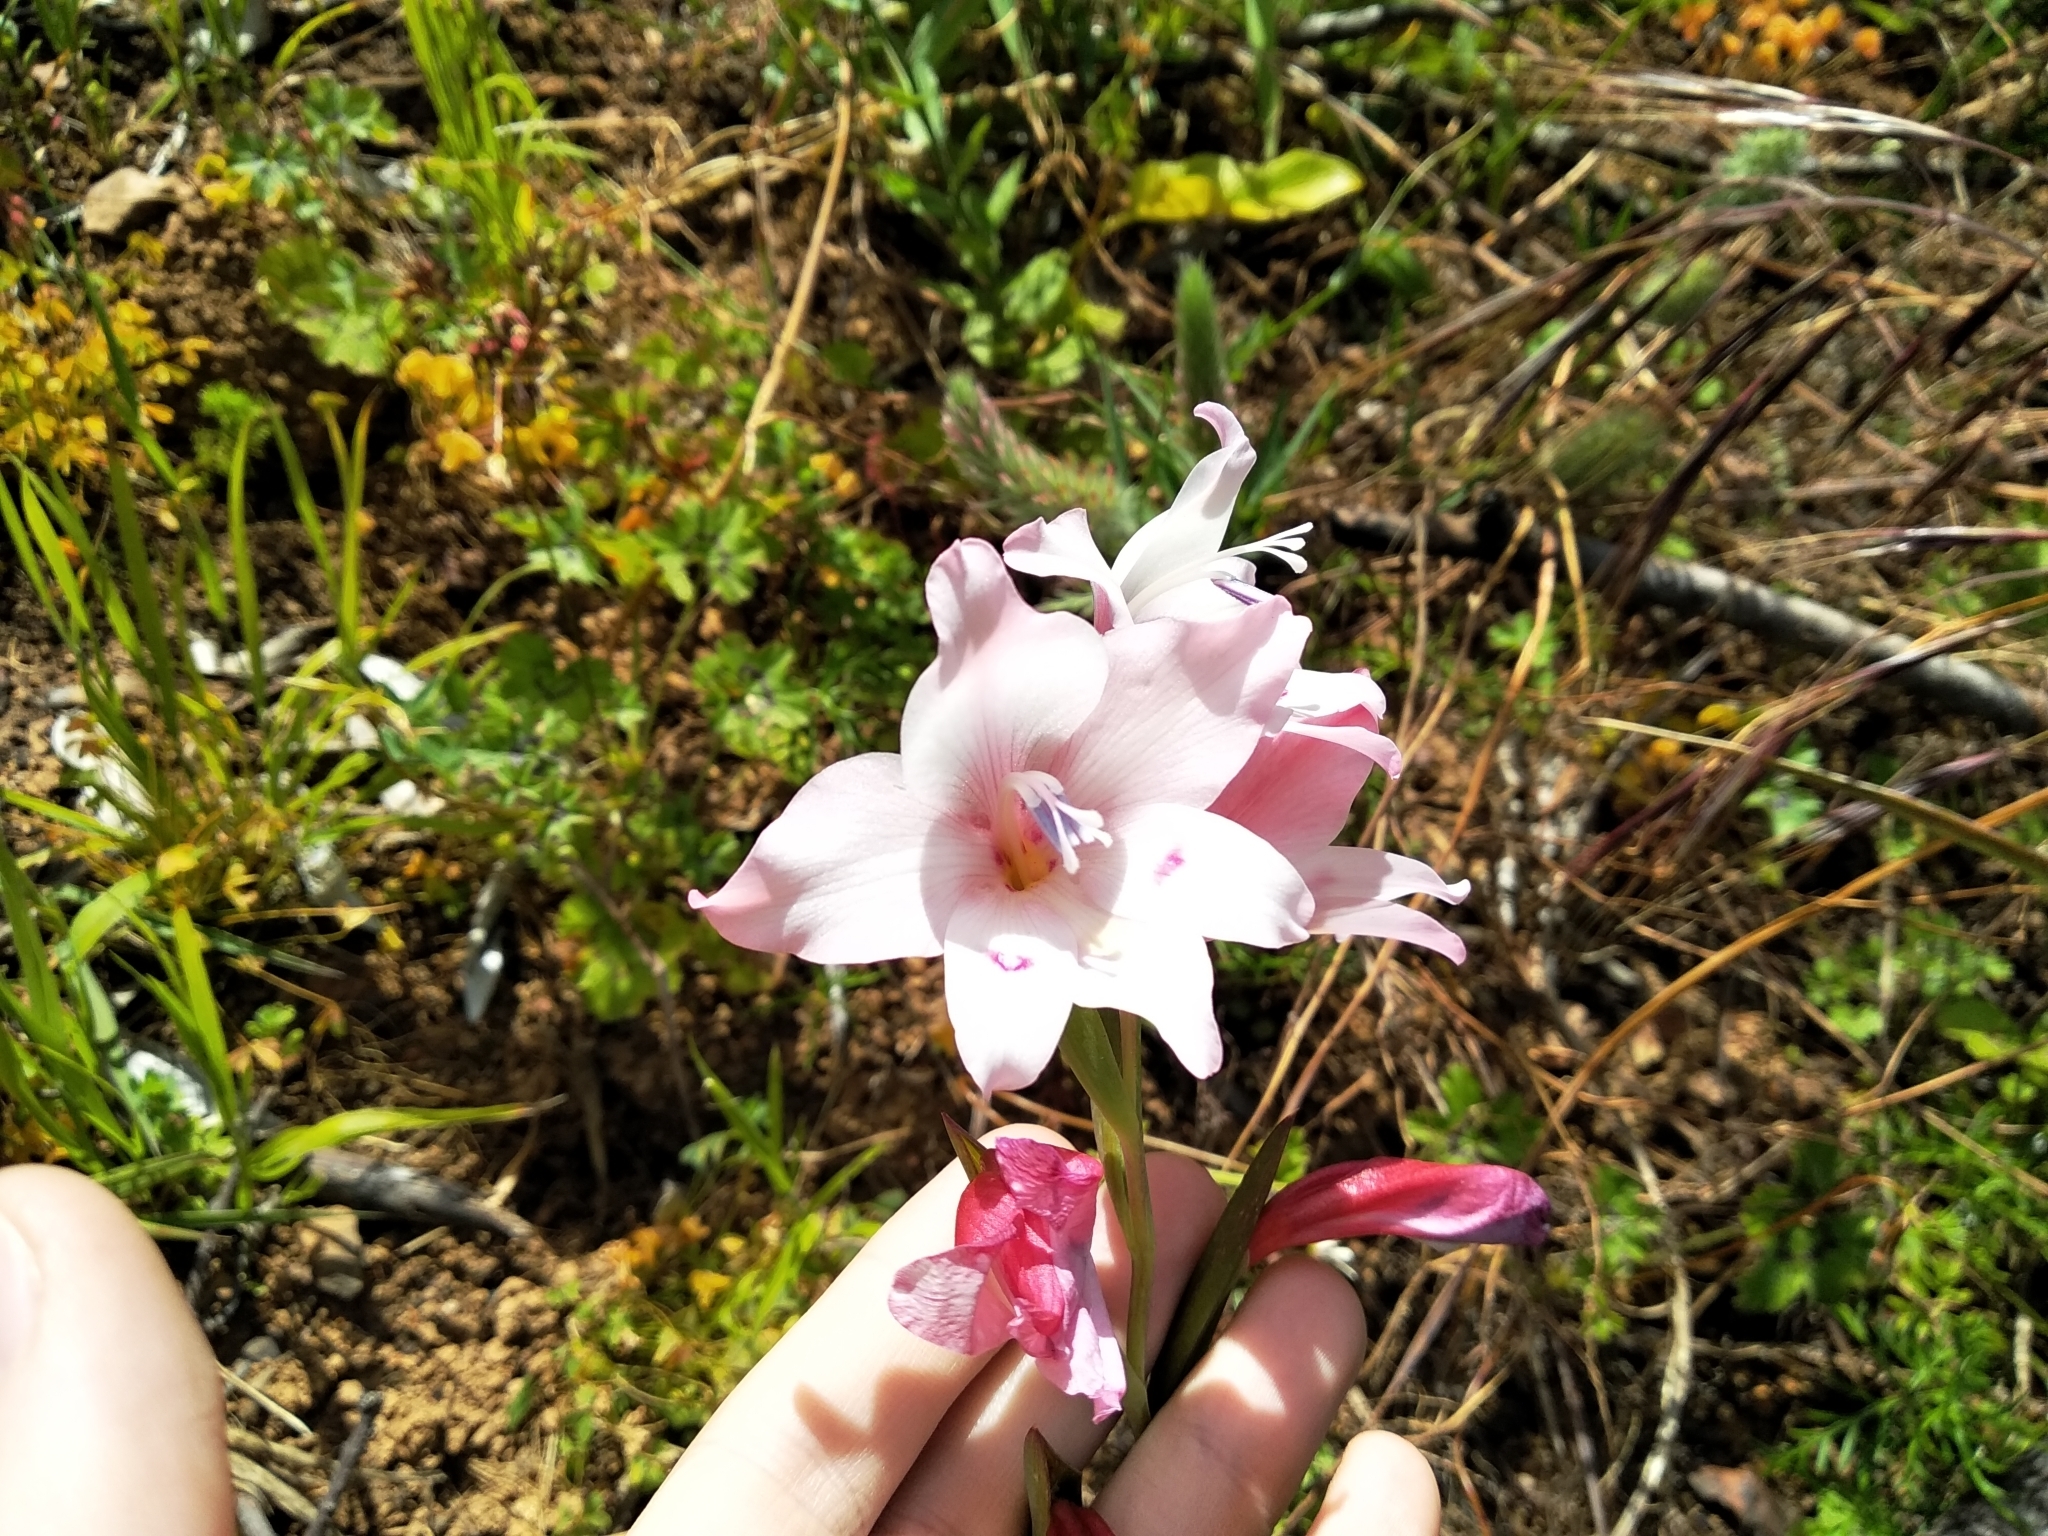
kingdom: Plantae
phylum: Tracheophyta
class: Liliopsida
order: Asparagales
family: Iridaceae
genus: Gladiolus
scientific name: Gladiolus carneus
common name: Painted-lady
